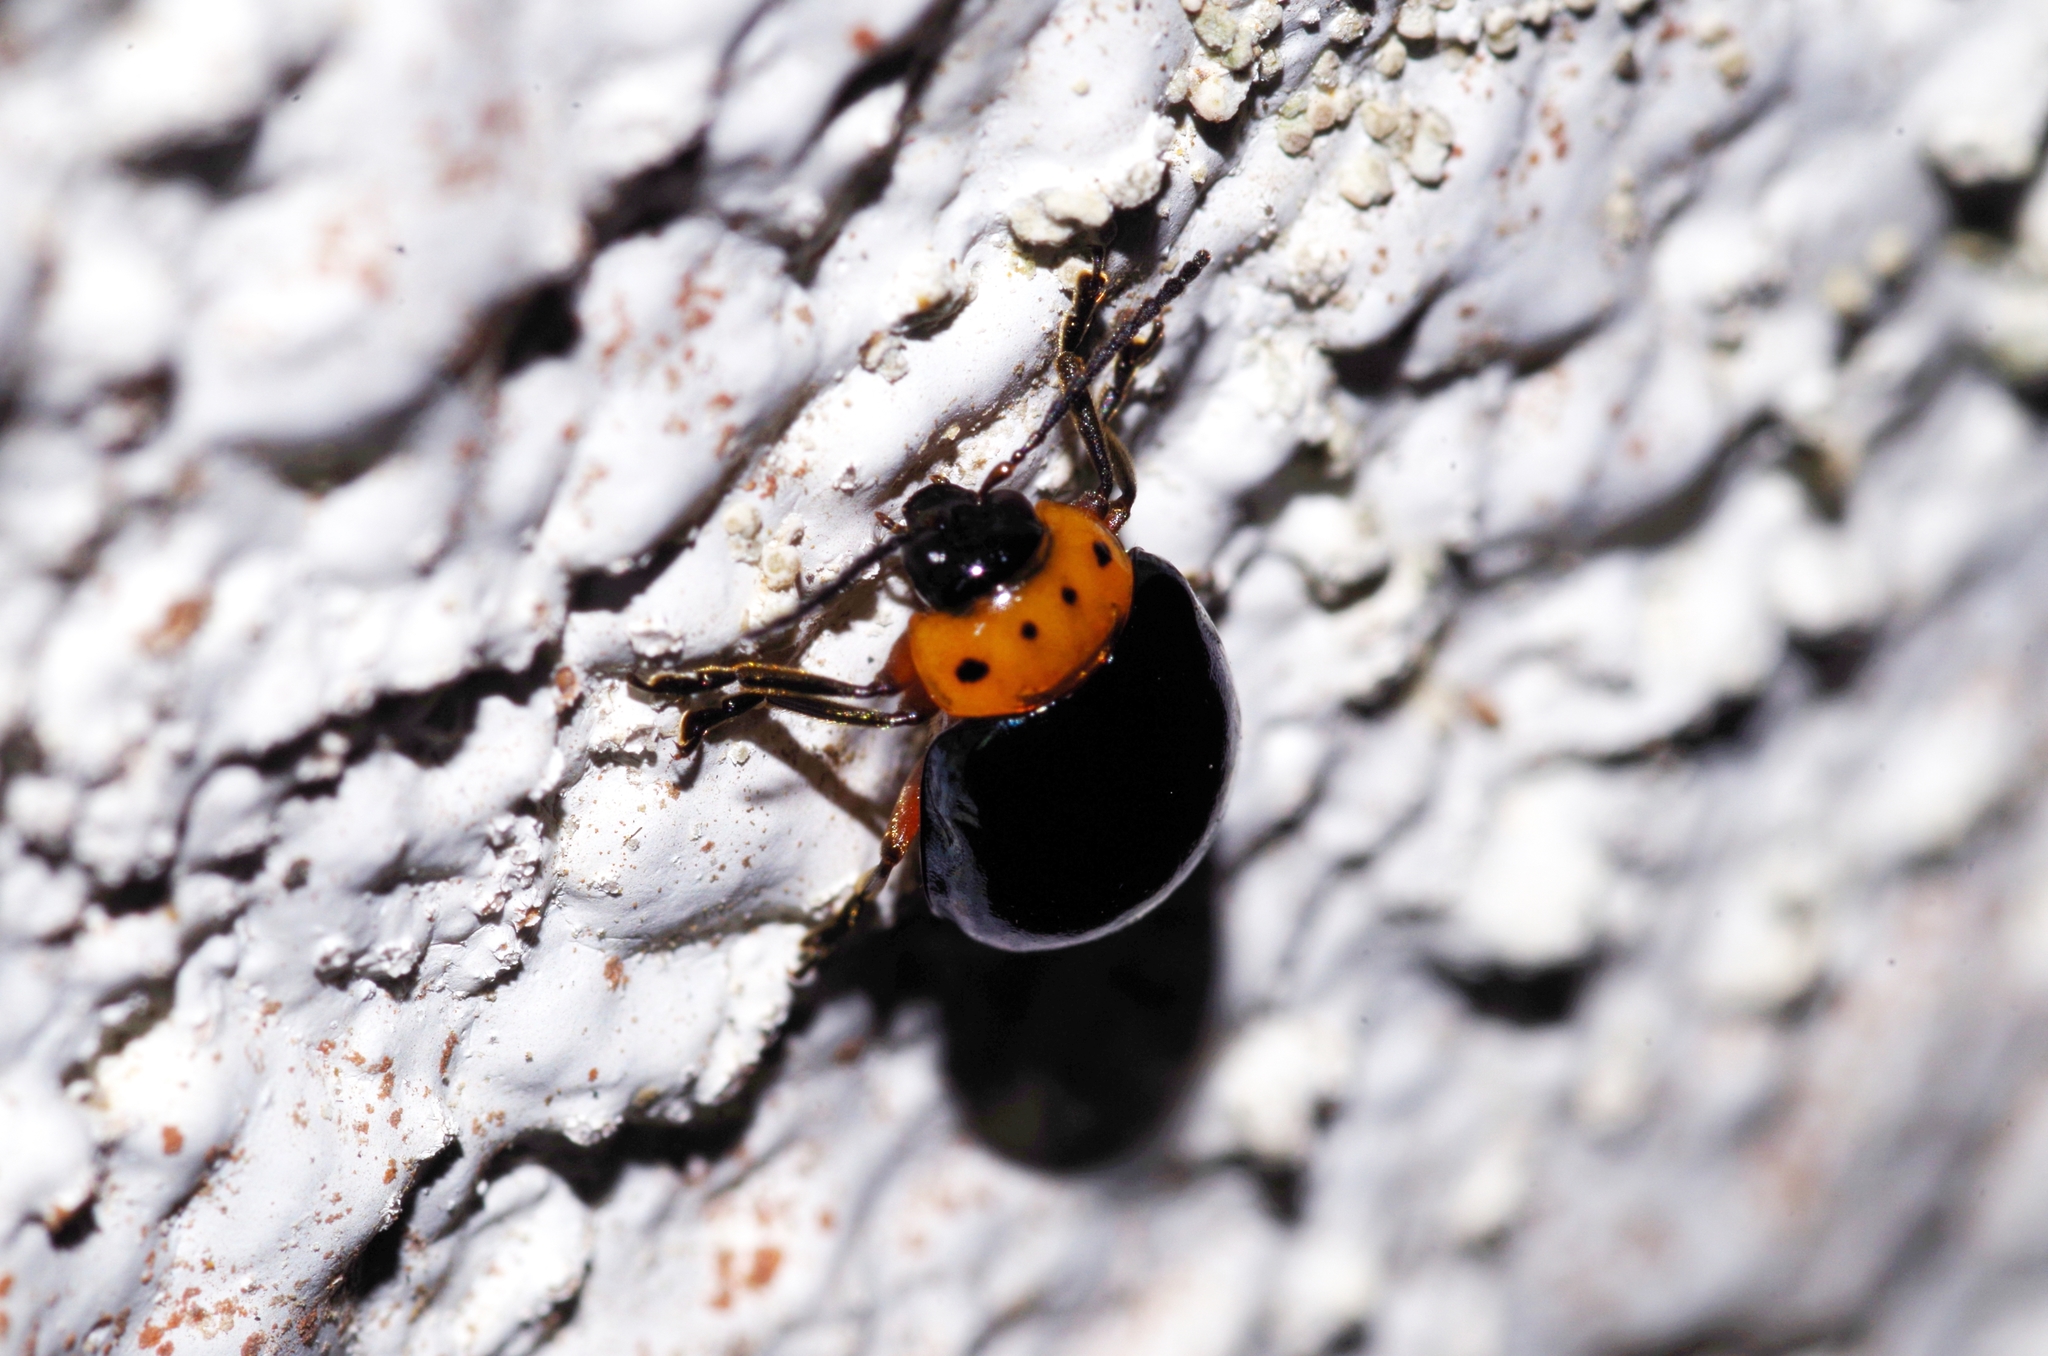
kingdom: Animalia
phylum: Arthropoda
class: Insecta
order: Coleoptera
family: Chrysomelidae
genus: Morphosphaera
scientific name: Morphosphaera caerulea
